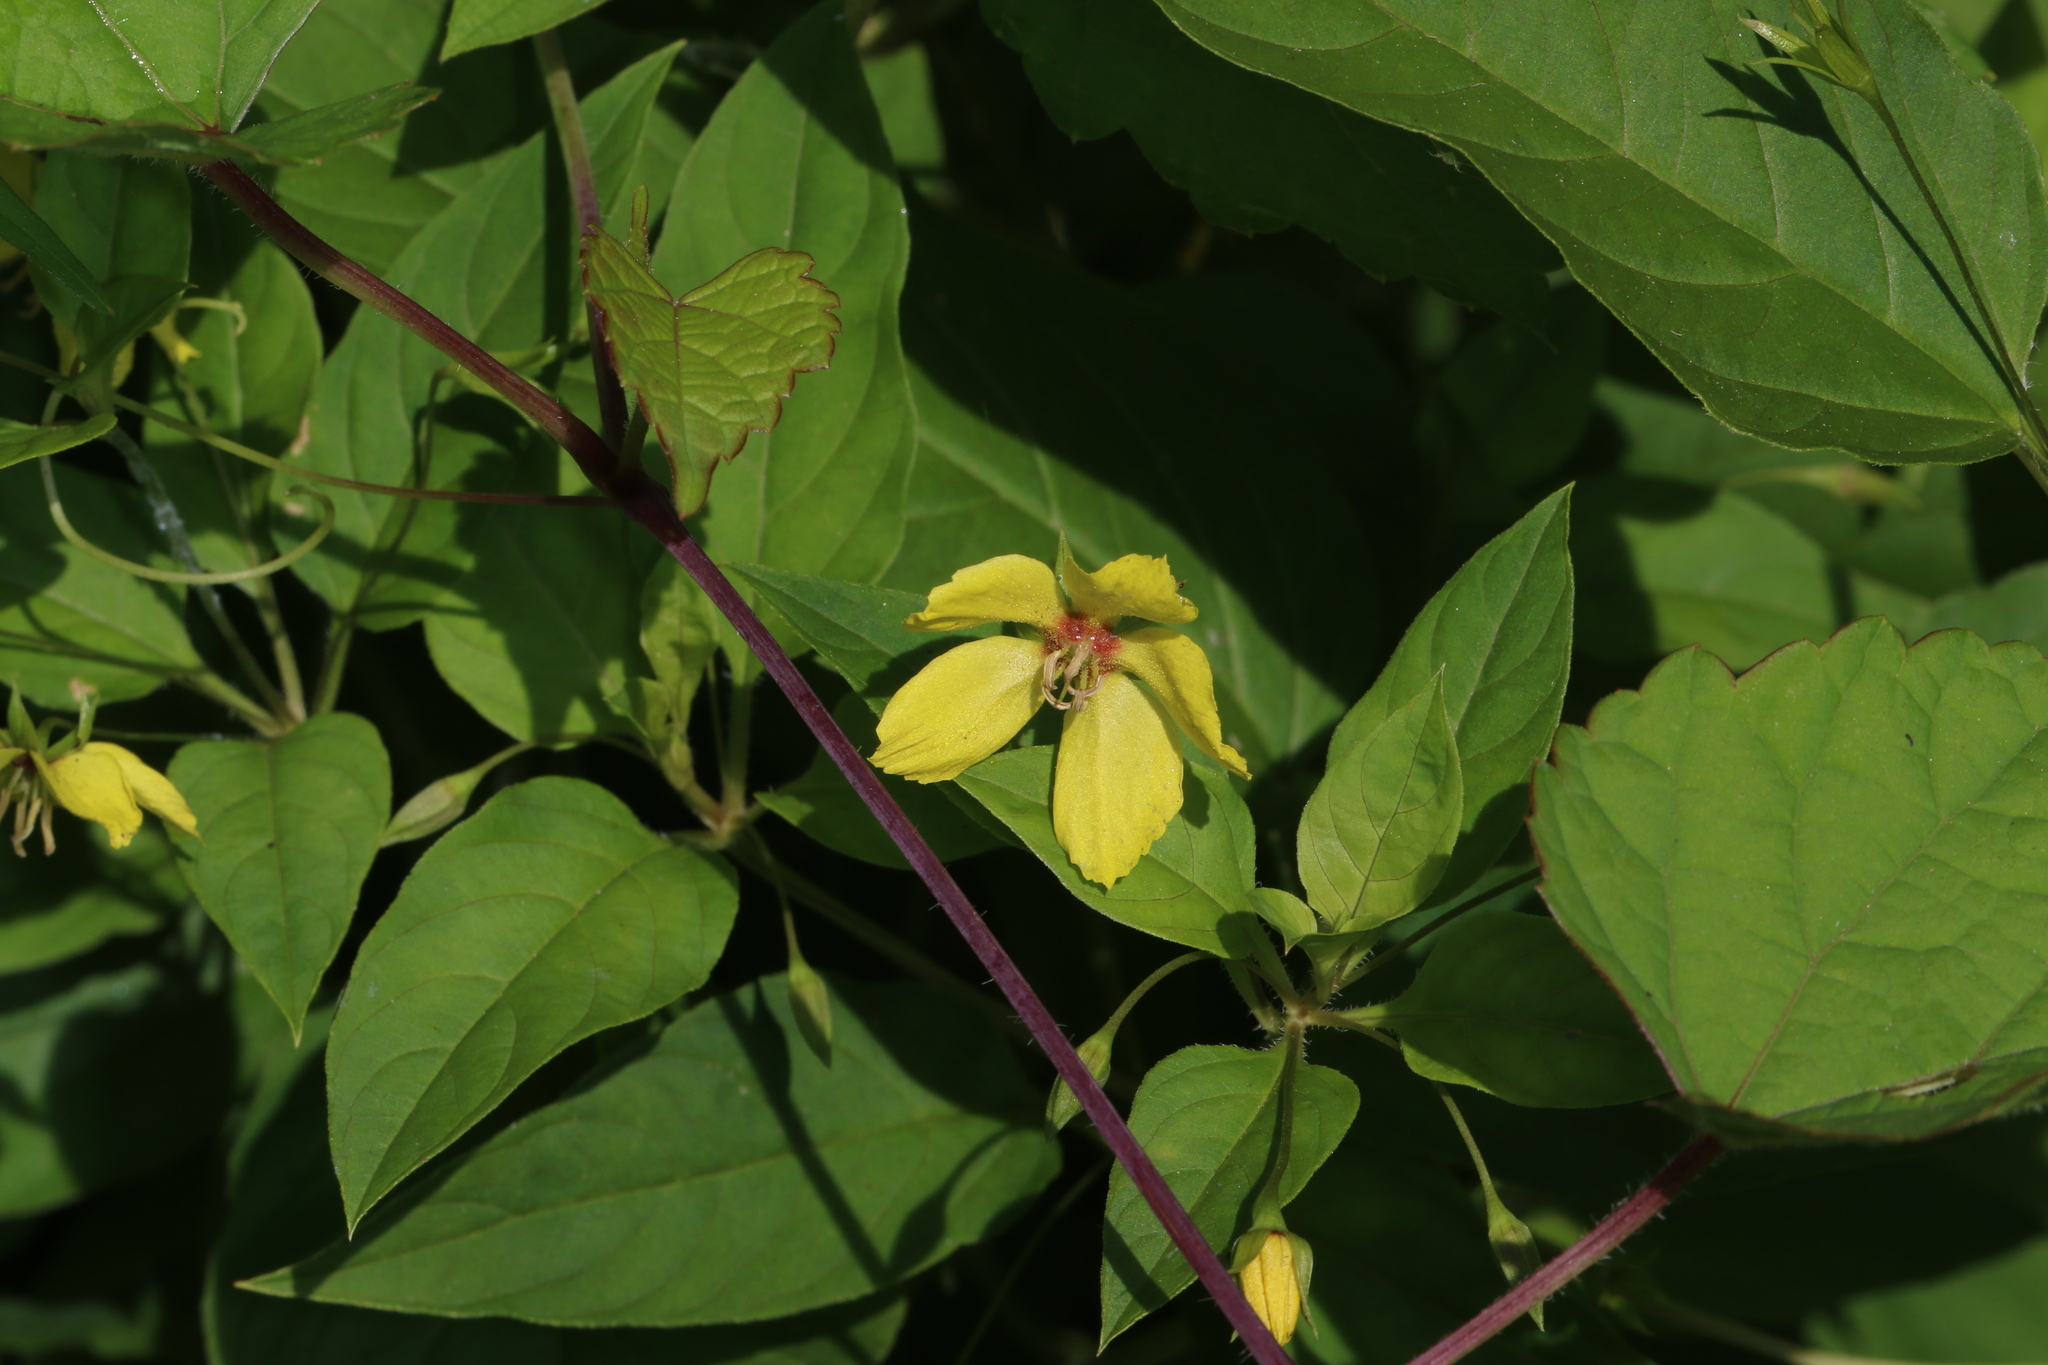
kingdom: Plantae
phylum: Tracheophyta
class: Magnoliopsida
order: Ericales
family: Primulaceae
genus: Lysimachia
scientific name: Lysimachia ciliata
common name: Fringed loosestrife
